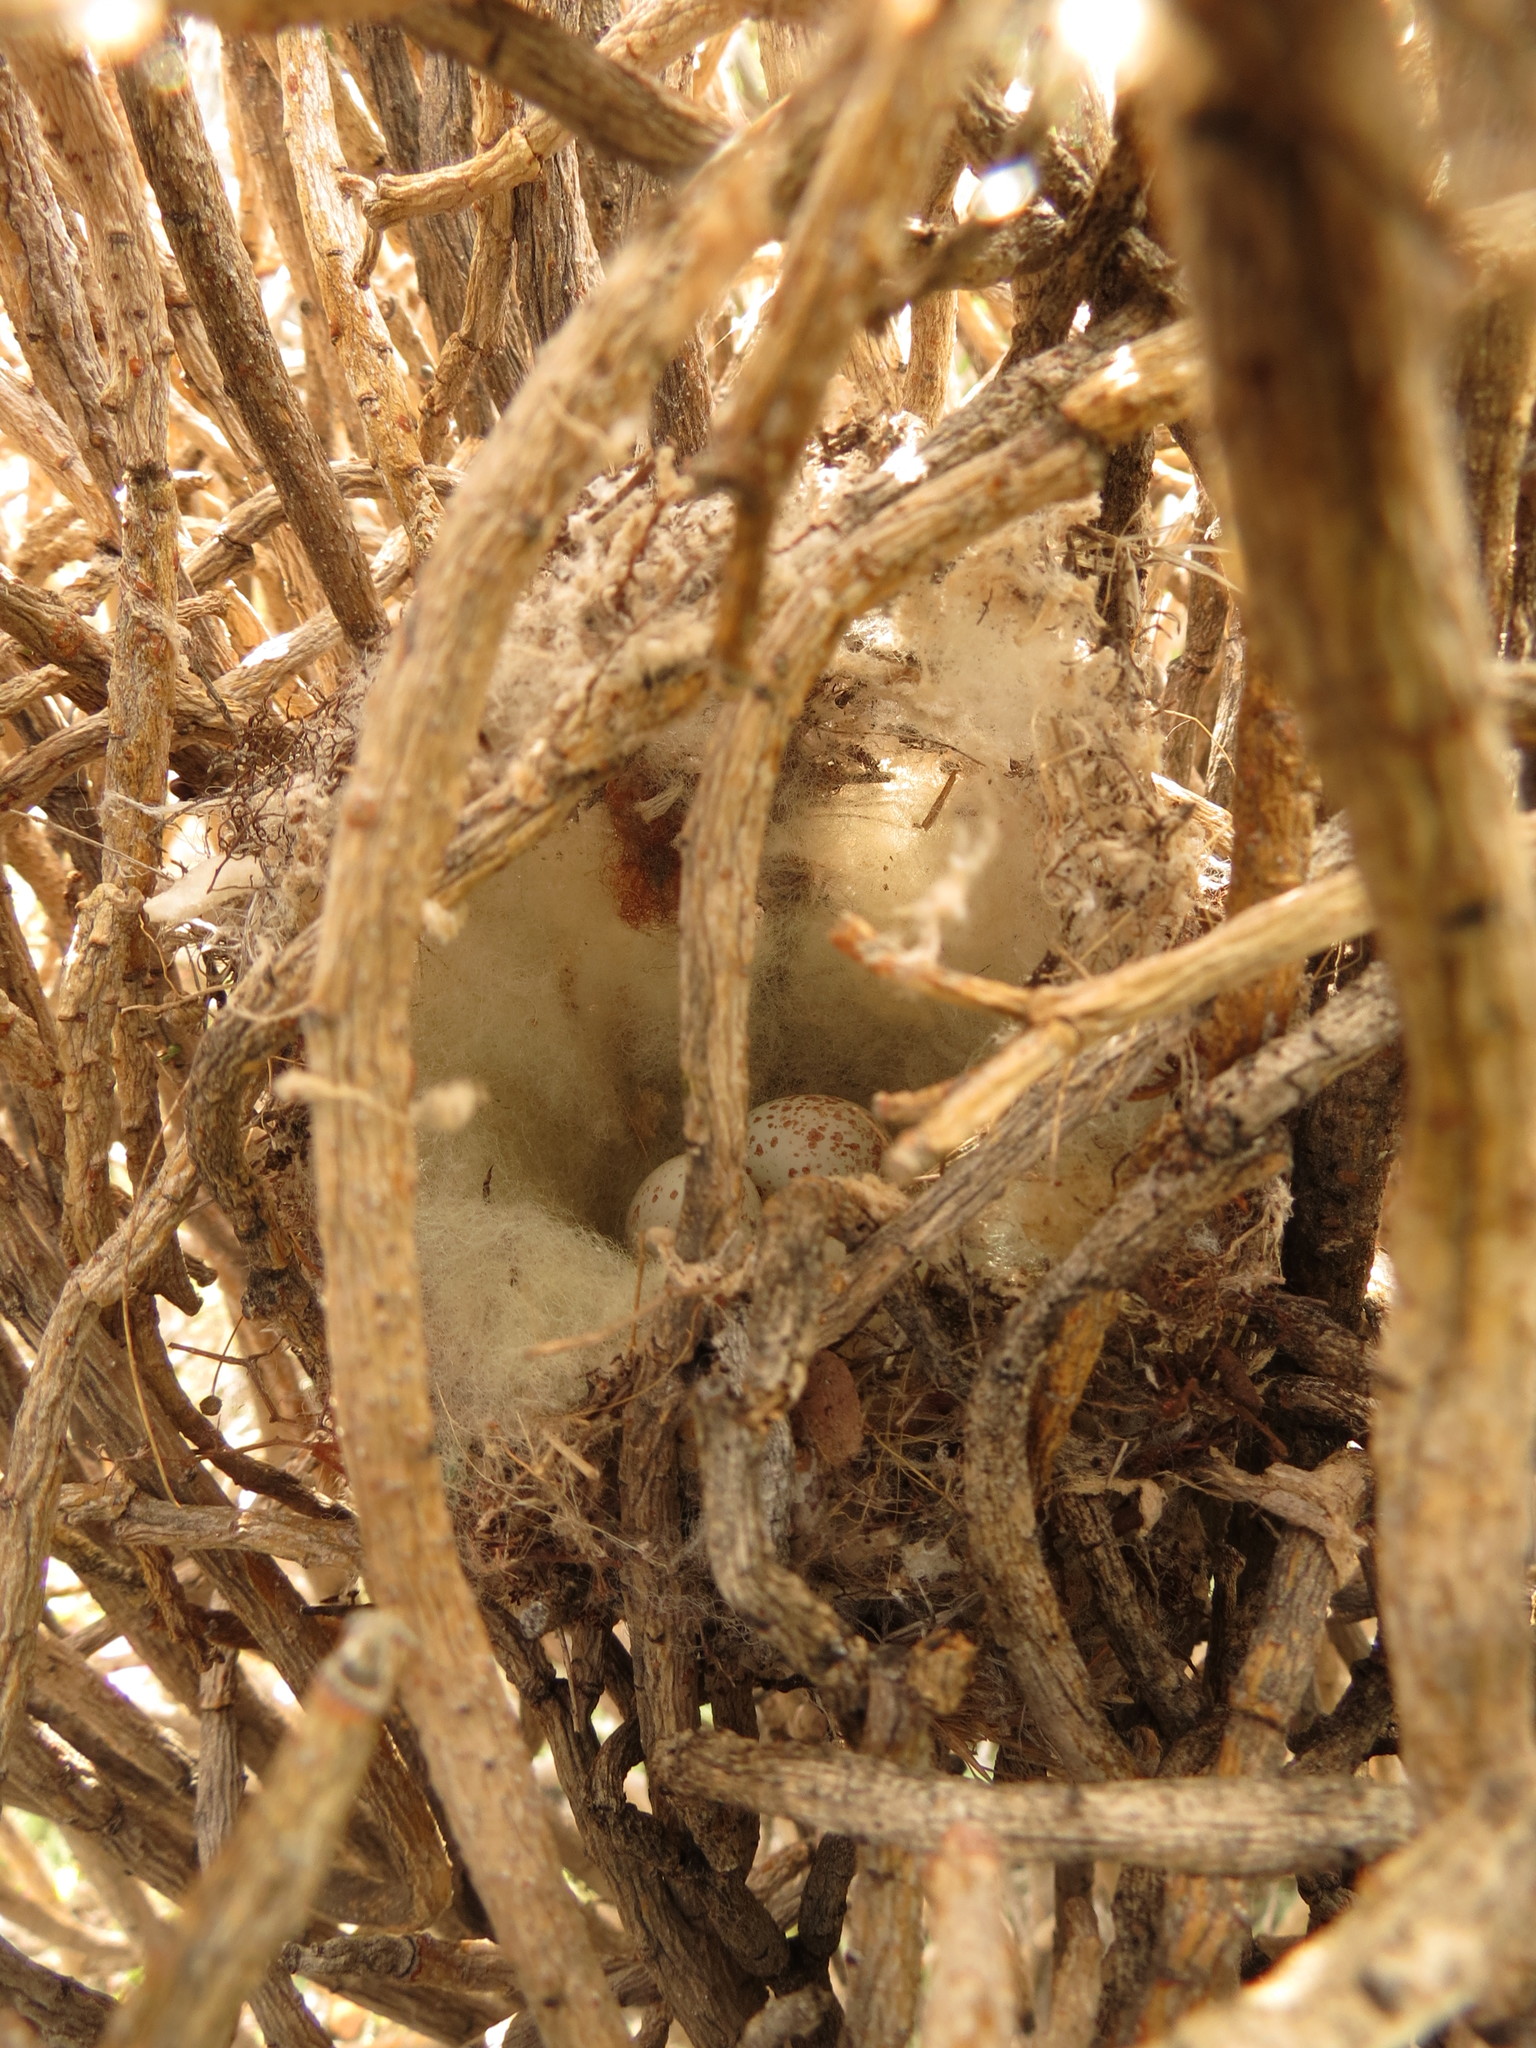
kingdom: Animalia
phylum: Chordata
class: Aves
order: Passeriformes
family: Cisticolidae
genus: Prinia
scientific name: Prinia maculosa
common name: Karoo prinia
